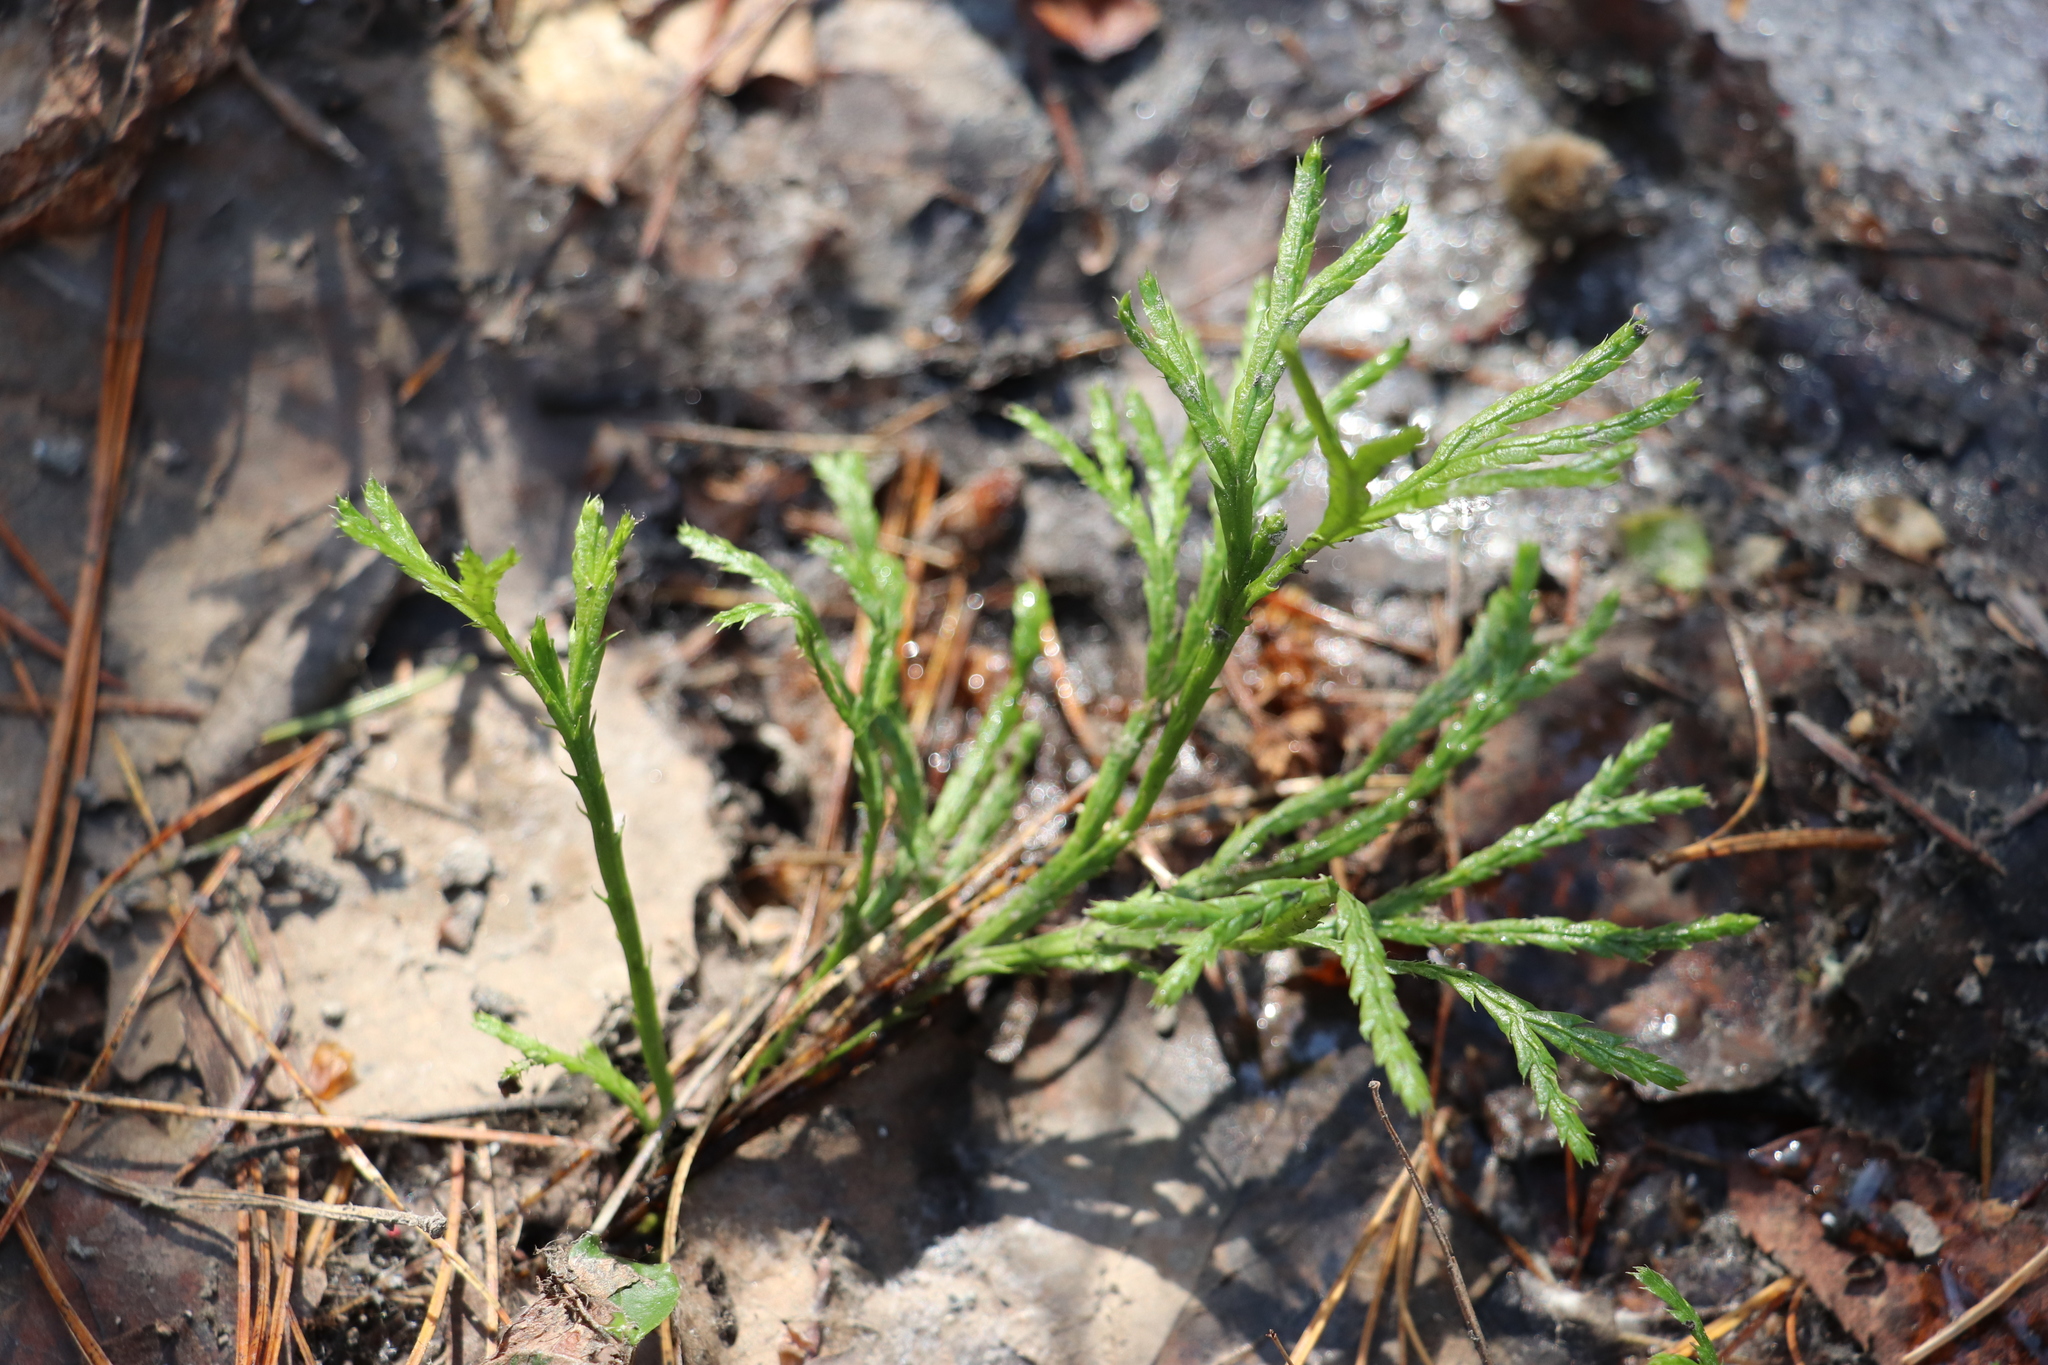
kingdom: Plantae
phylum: Tracheophyta
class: Lycopodiopsida
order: Lycopodiales
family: Lycopodiaceae
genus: Diphasiastrum
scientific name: Diphasiastrum complanatum
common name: Northern running-pine
